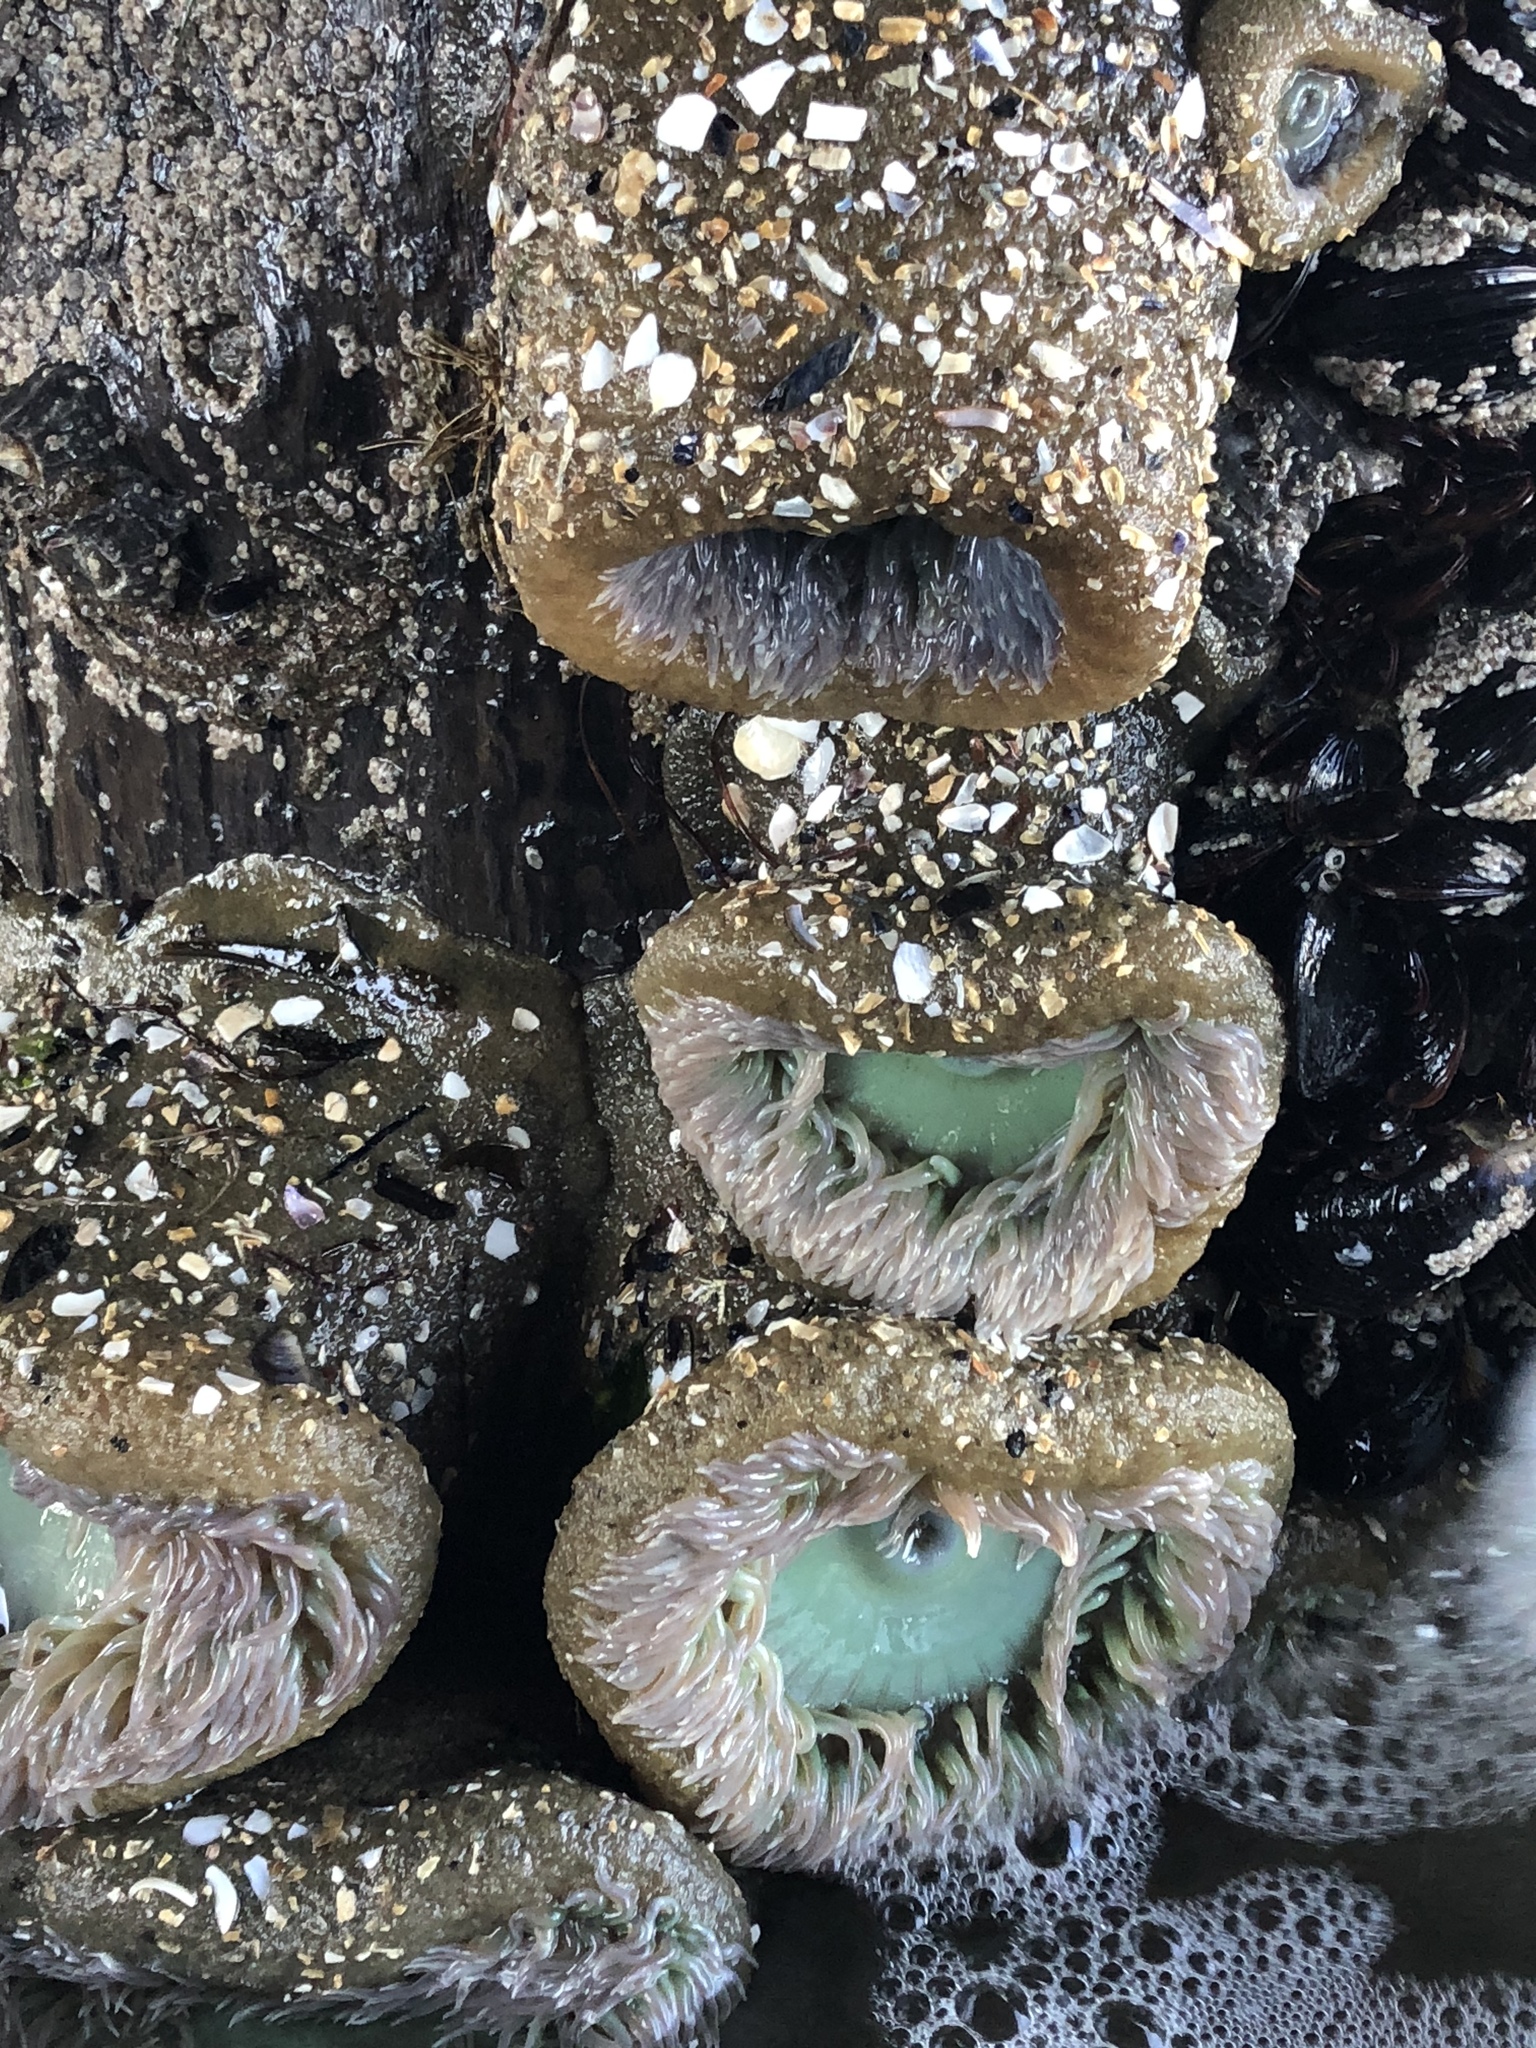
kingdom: Animalia
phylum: Cnidaria
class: Anthozoa
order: Actiniaria
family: Actiniidae
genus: Anthopleura
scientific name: Anthopleura xanthogrammica
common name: Giant green anemone
